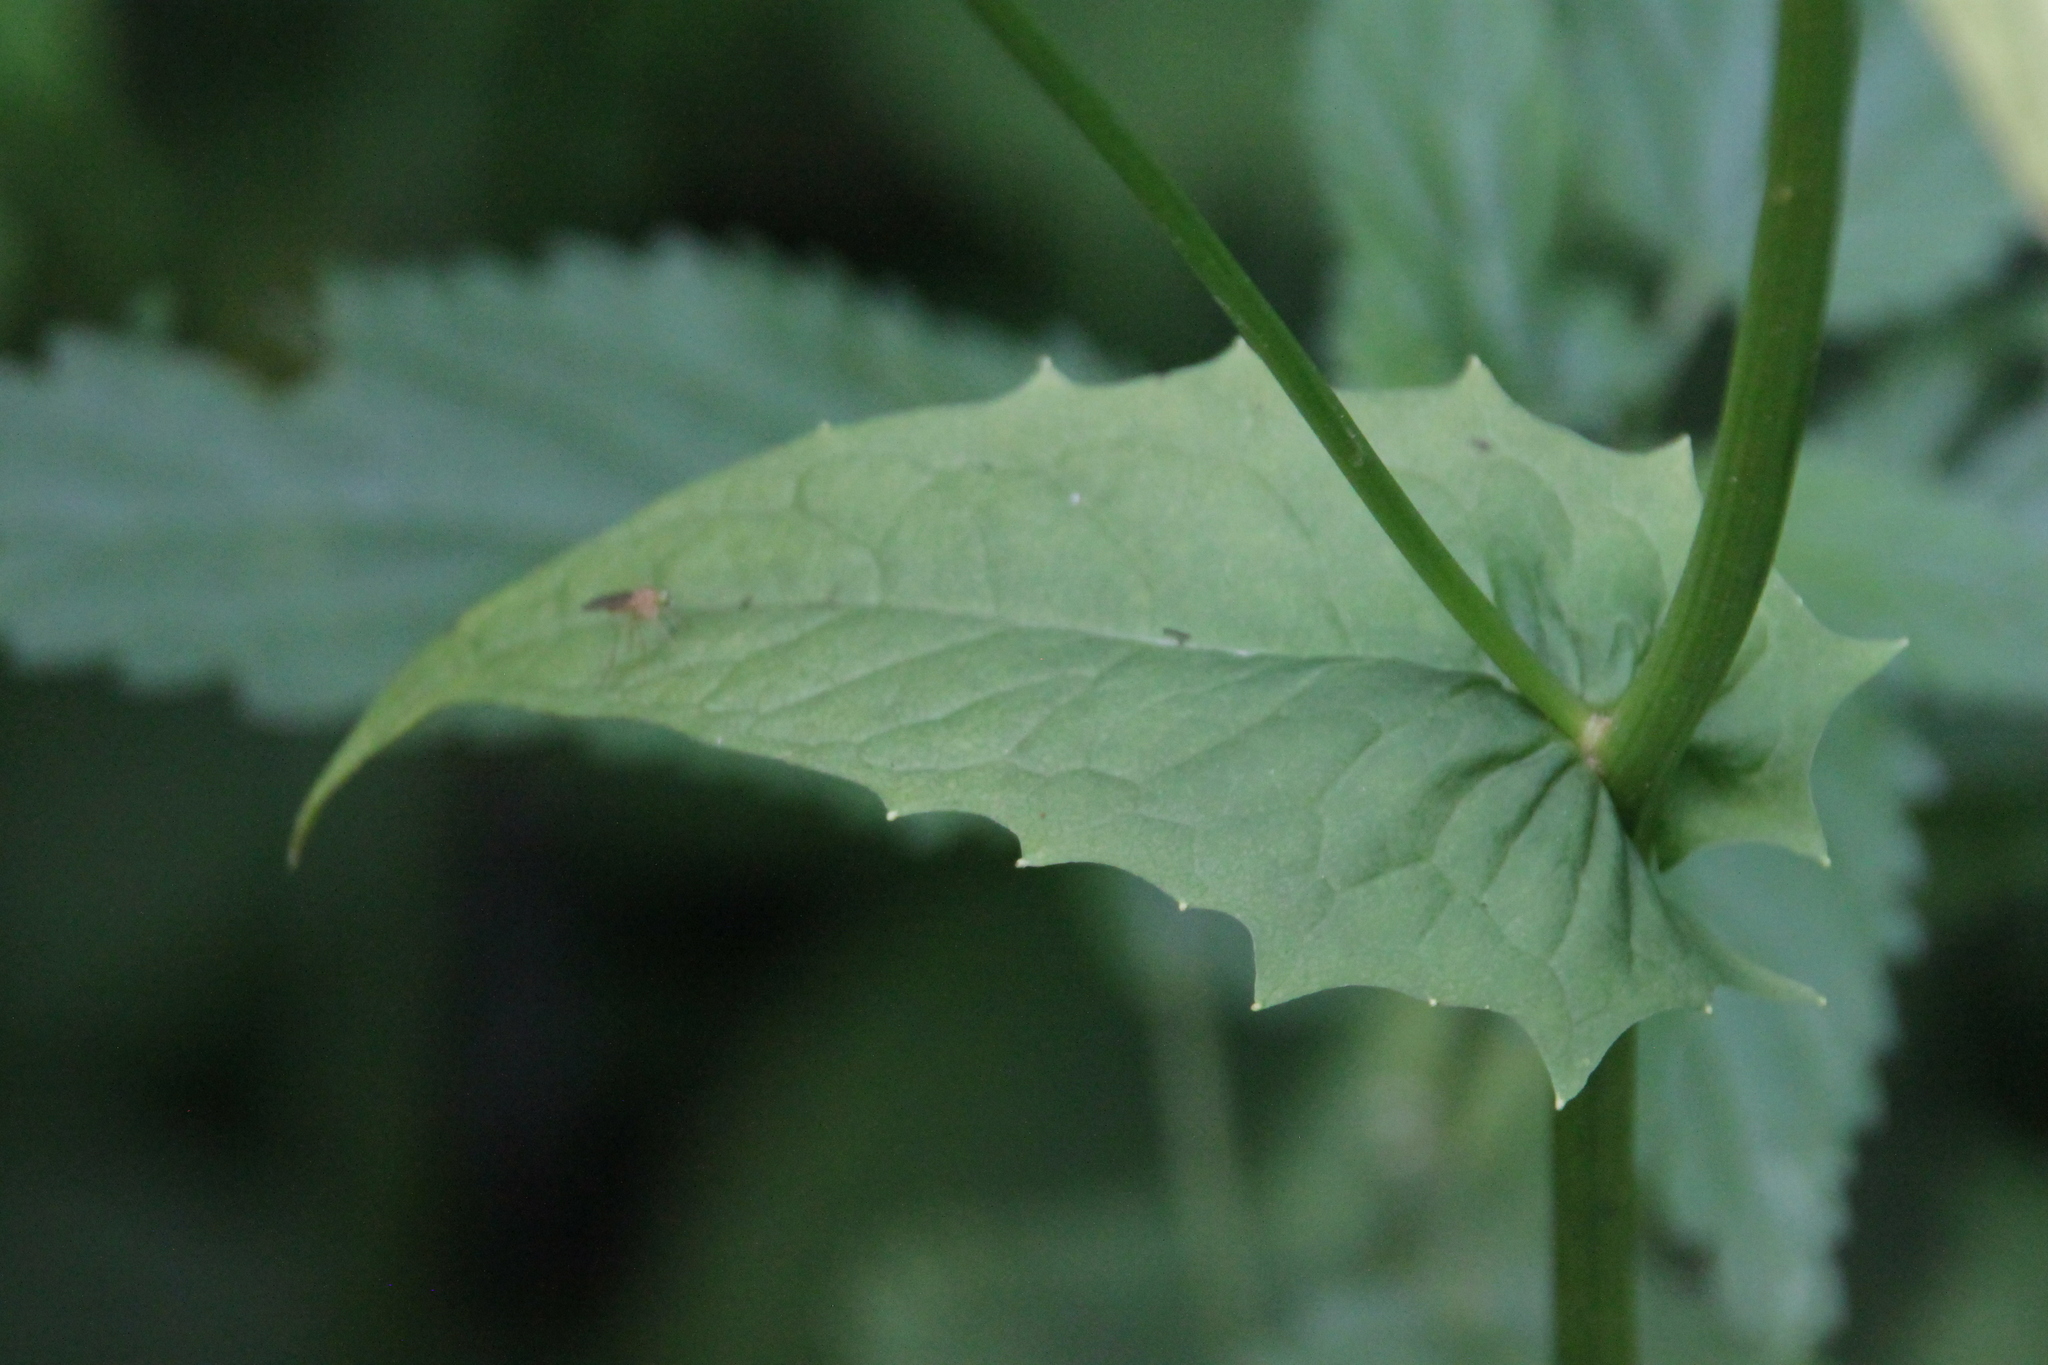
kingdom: Plantae
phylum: Tracheophyta
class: Magnoliopsida
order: Asterales
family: Asteraceae
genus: Crepis
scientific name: Crepis paludosa
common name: Marsh hawk's-beard
